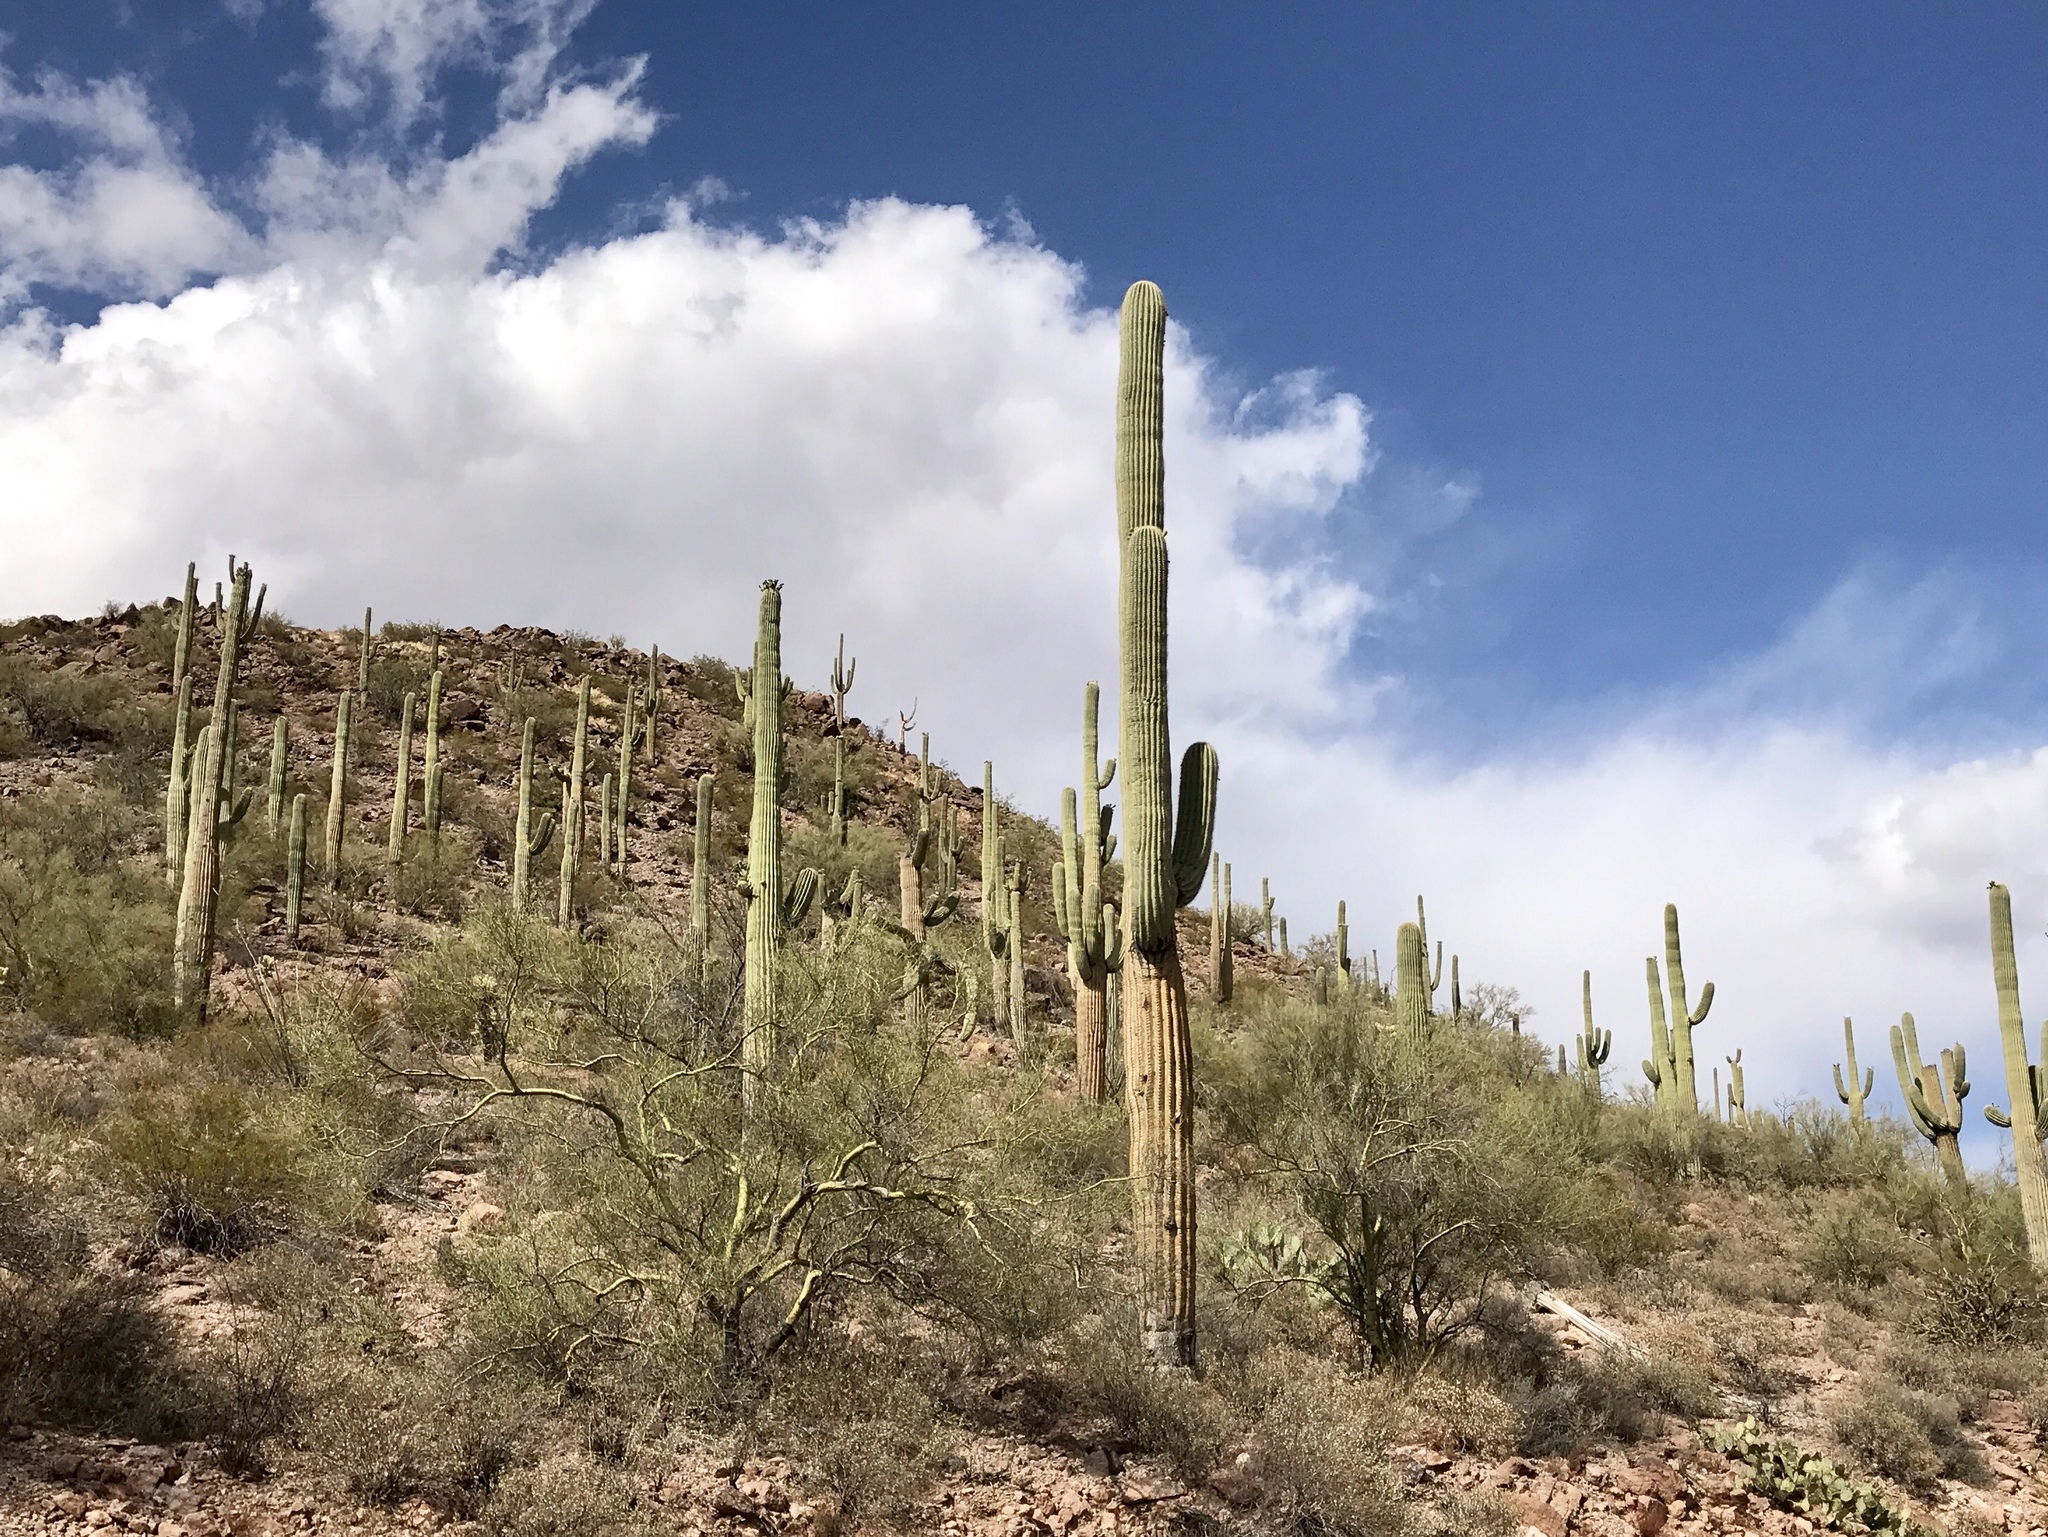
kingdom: Plantae
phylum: Tracheophyta
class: Magnoliopsida
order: Caryophyllales
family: Cactaceae
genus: Carnegiea
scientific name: Carnegiea gigantea
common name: Saguaro
